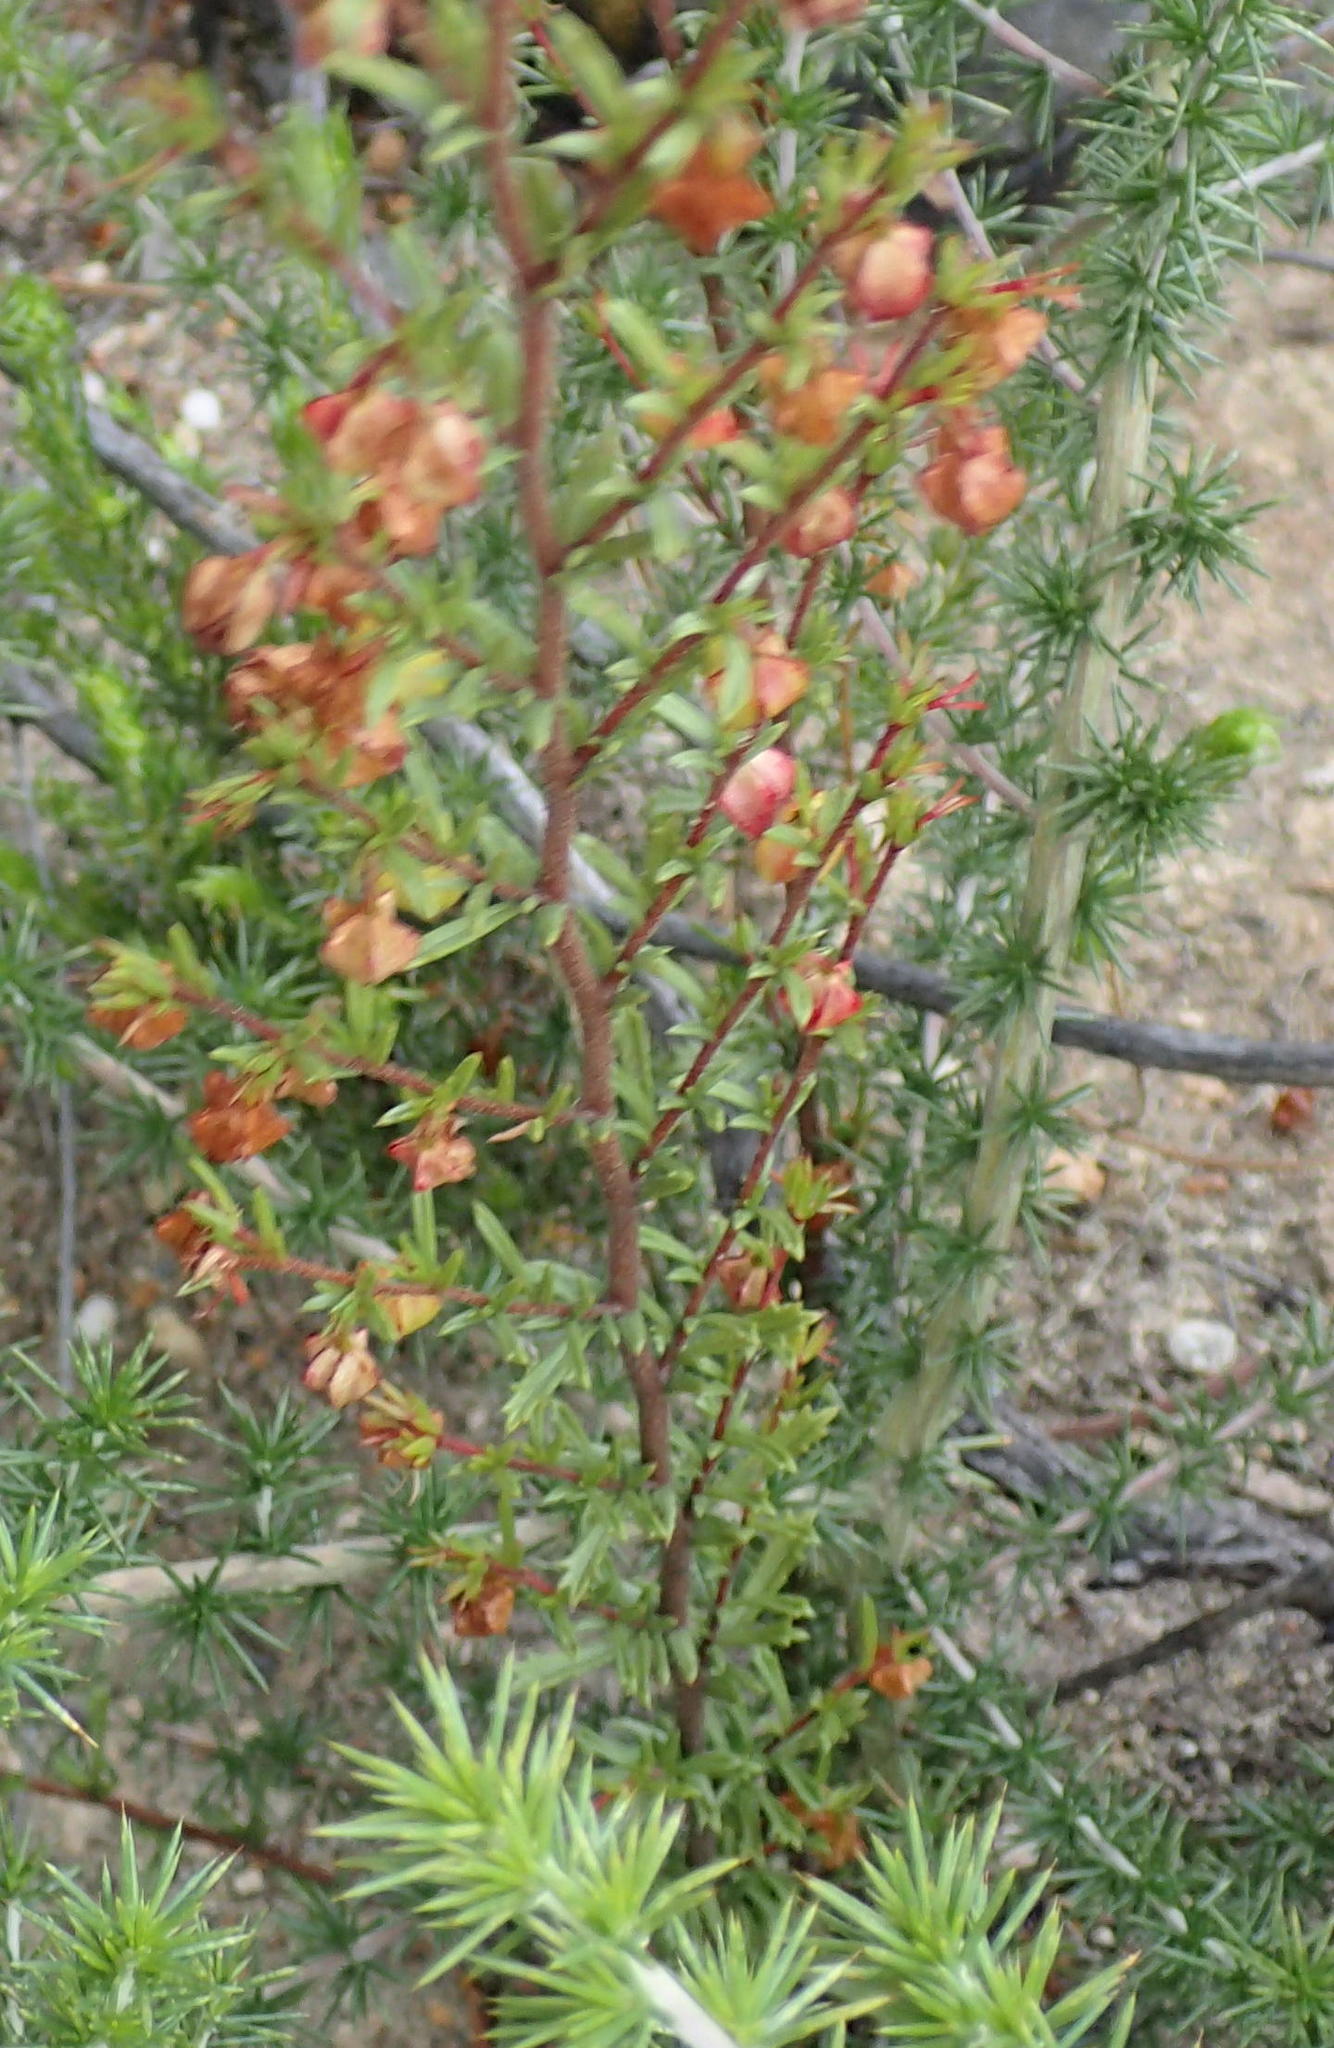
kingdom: Plantae
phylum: Tracheophyta
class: Magnoliopsida
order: Malvales
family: Malvaceae
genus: Hermannia
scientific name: Hermannia angularis
